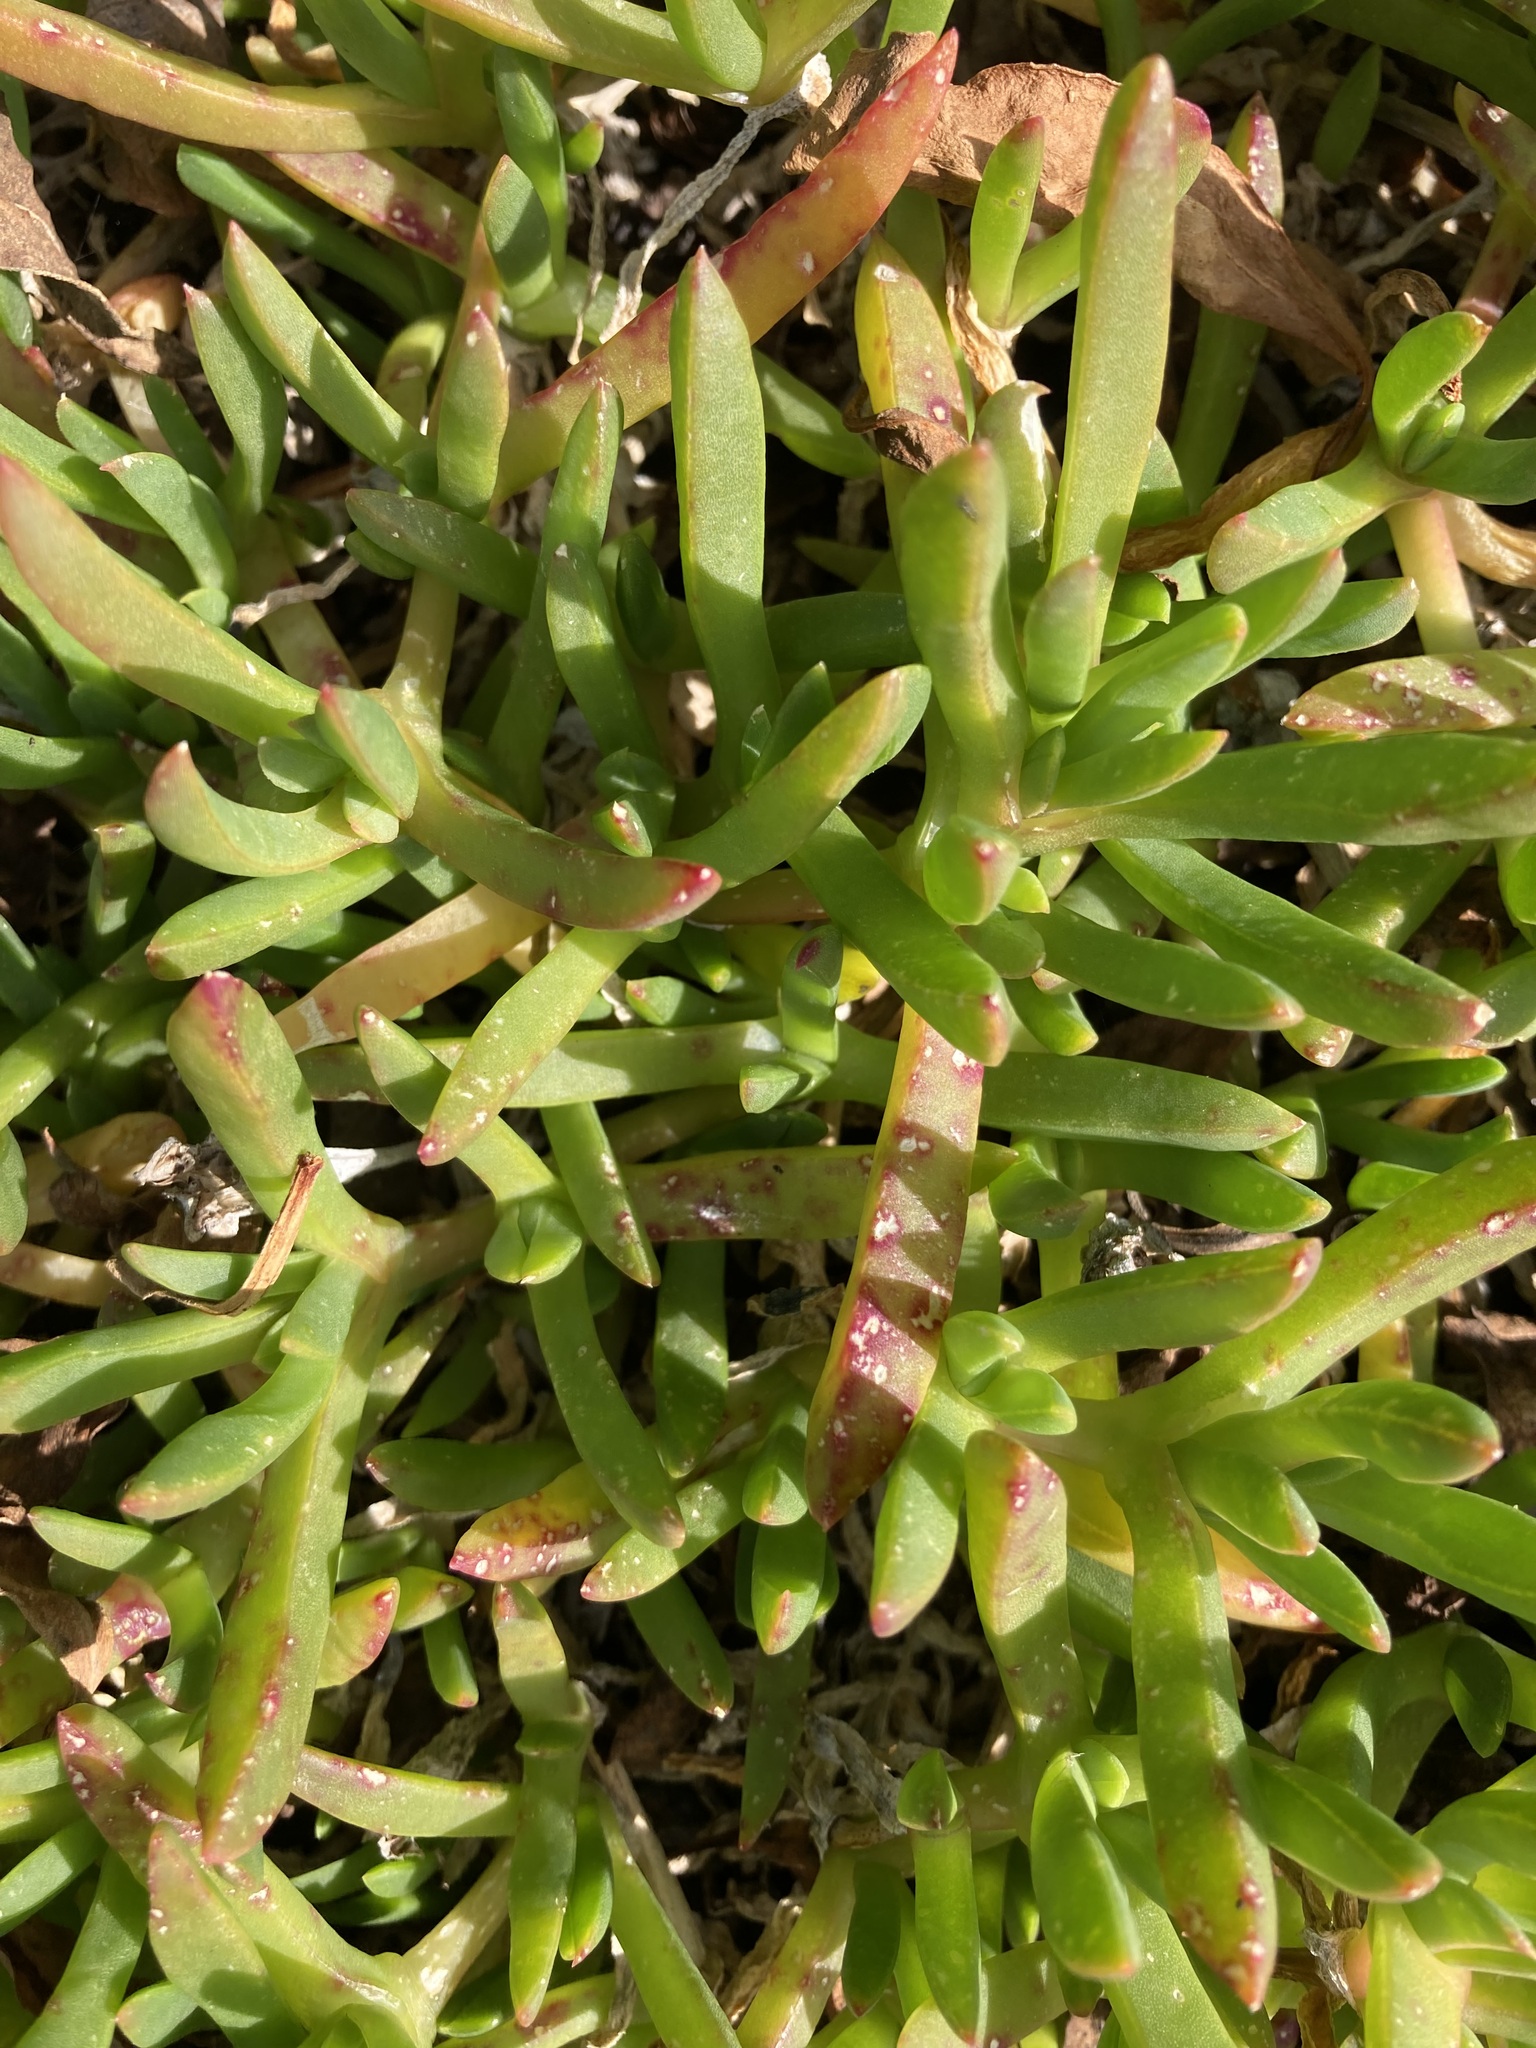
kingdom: Plantae
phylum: Tracheophyta
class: Magnoliopsida
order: Caryophyllales
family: Aizoaceae
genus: Disphyma
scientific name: Disphyma australe
